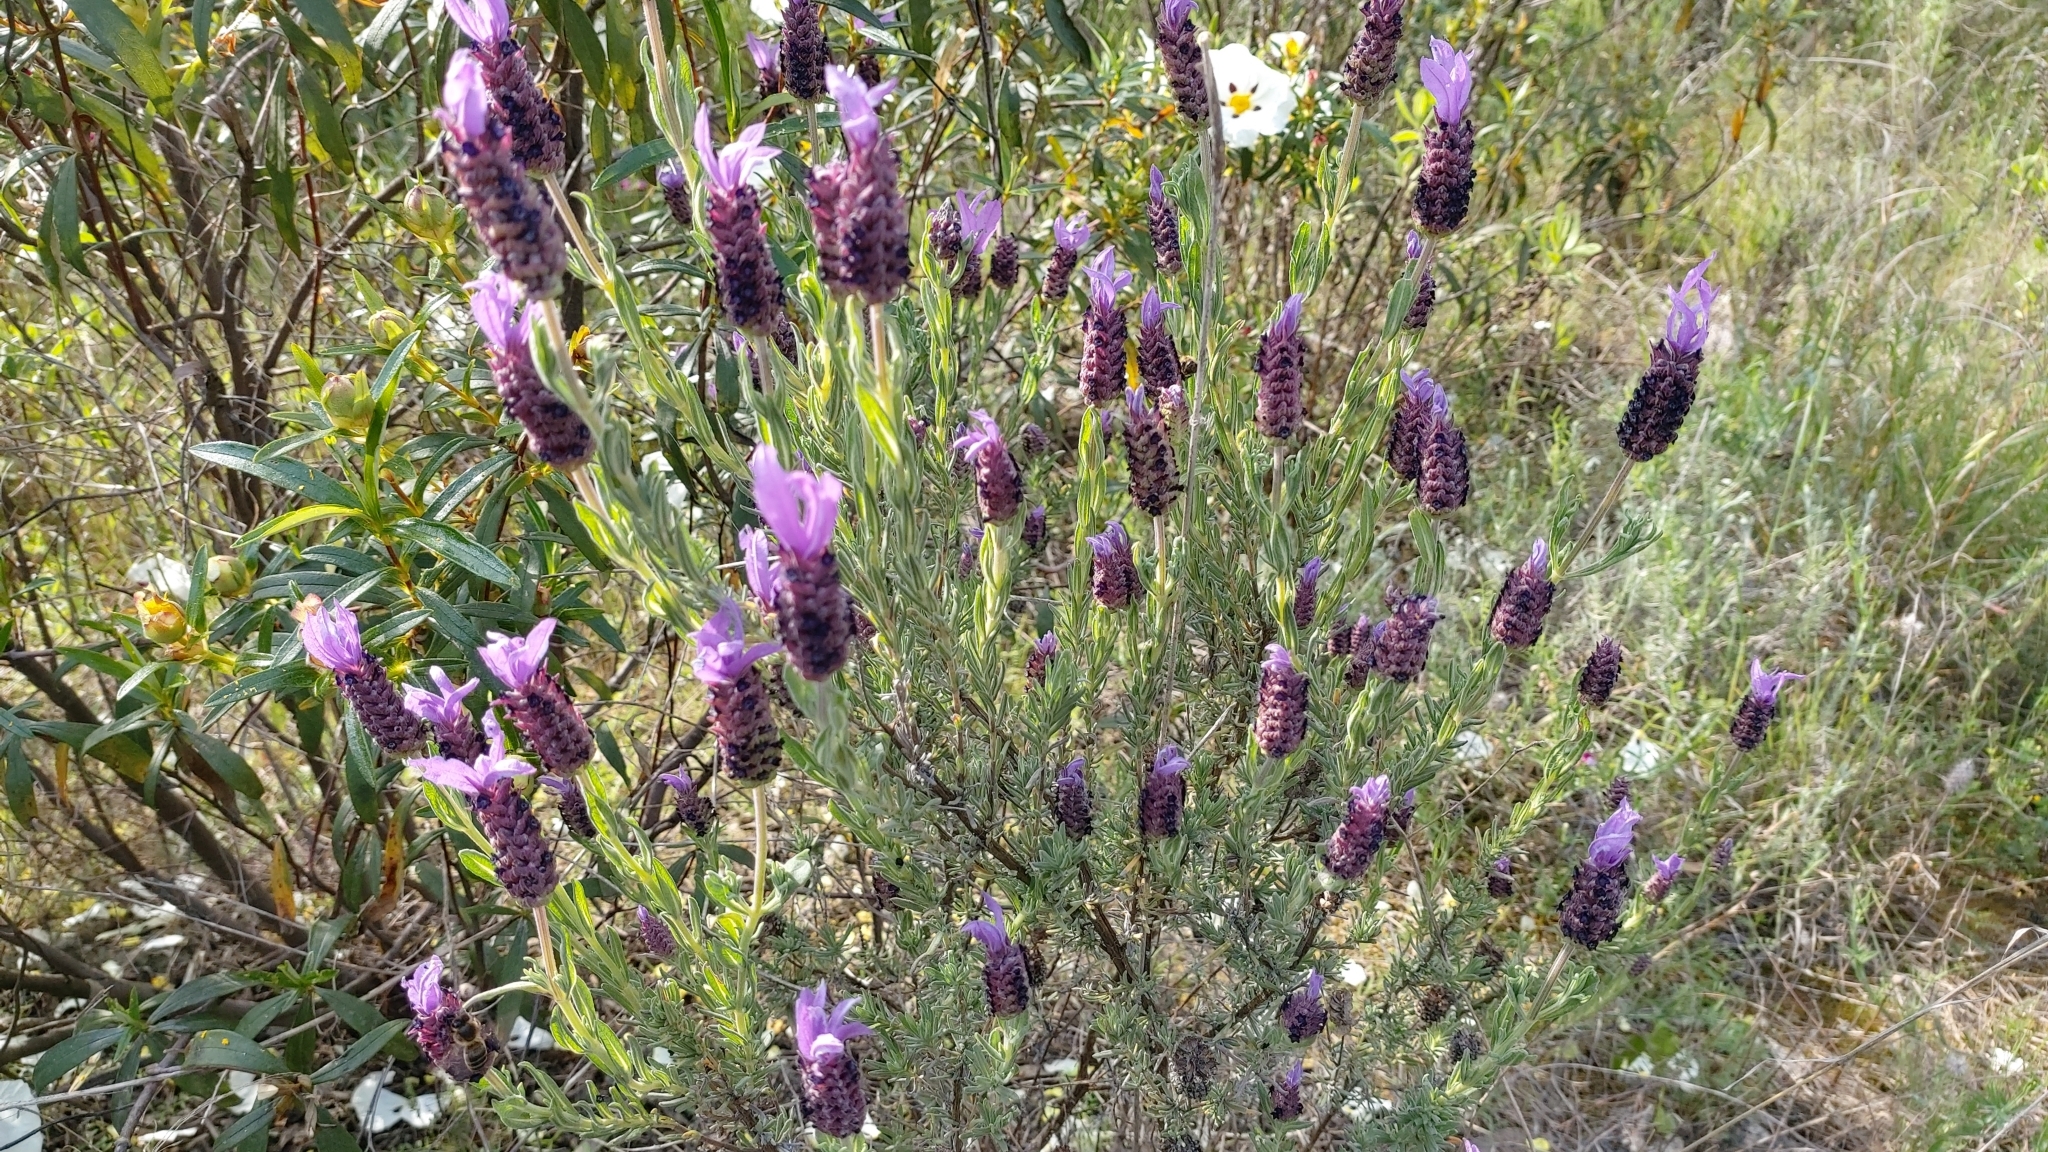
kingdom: Plantae
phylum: Tracheophyta
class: Magnoliopsida
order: Lamiales
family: Lamiaceae
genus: Lavandula
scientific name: Lavandula stoechas
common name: French lavender
